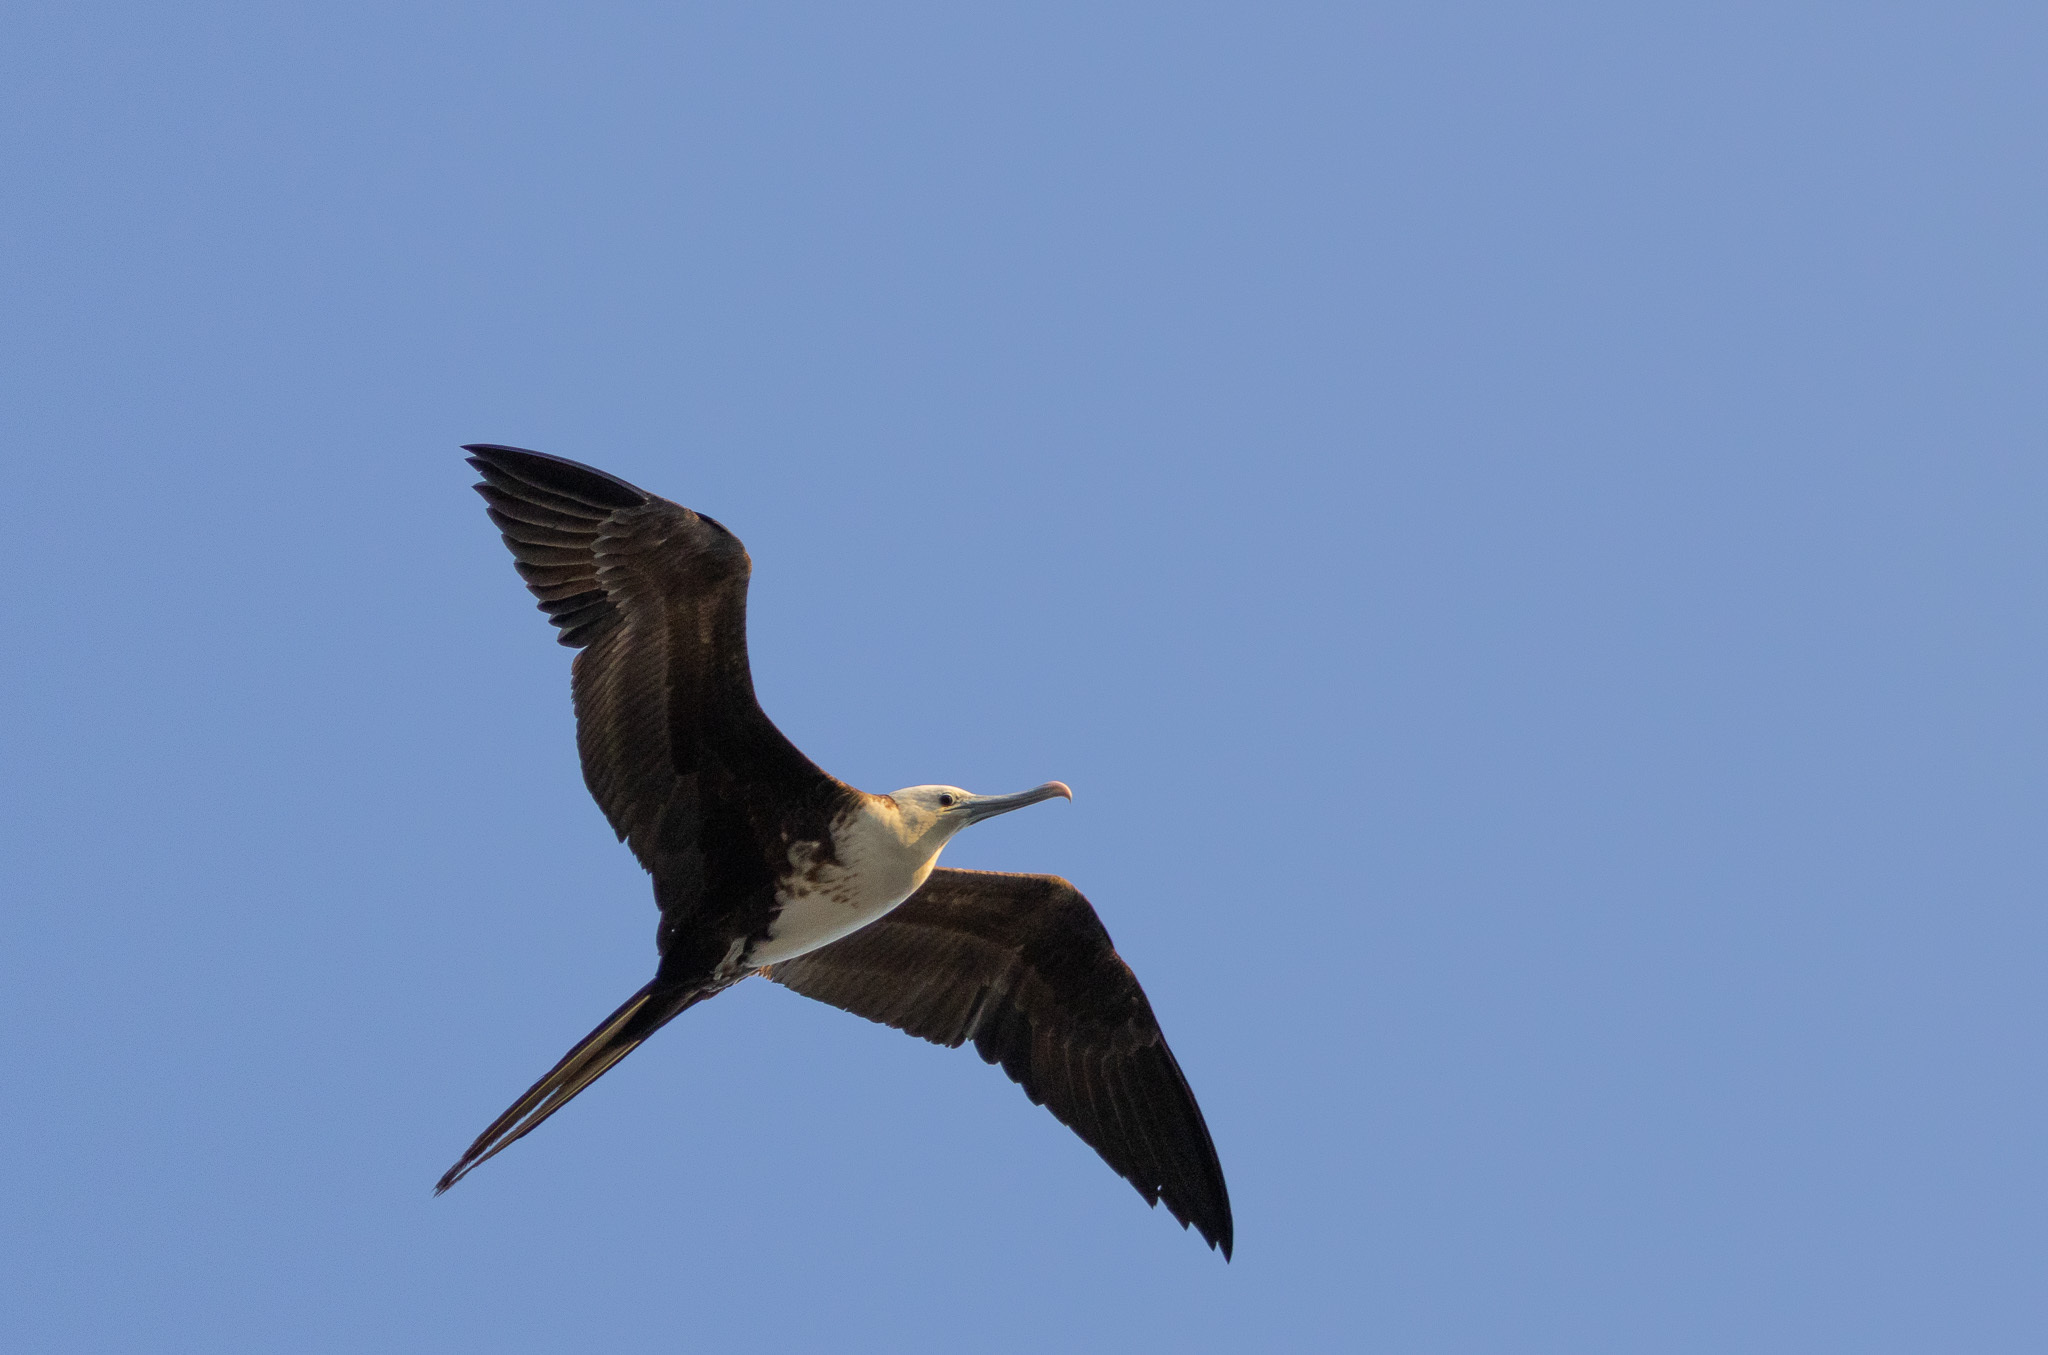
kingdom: Animalia
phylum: Chordata
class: Aves
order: Suliformes
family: Fregatidae
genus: Fregata
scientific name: Fregata magnificens
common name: Magnificent frigatebird
